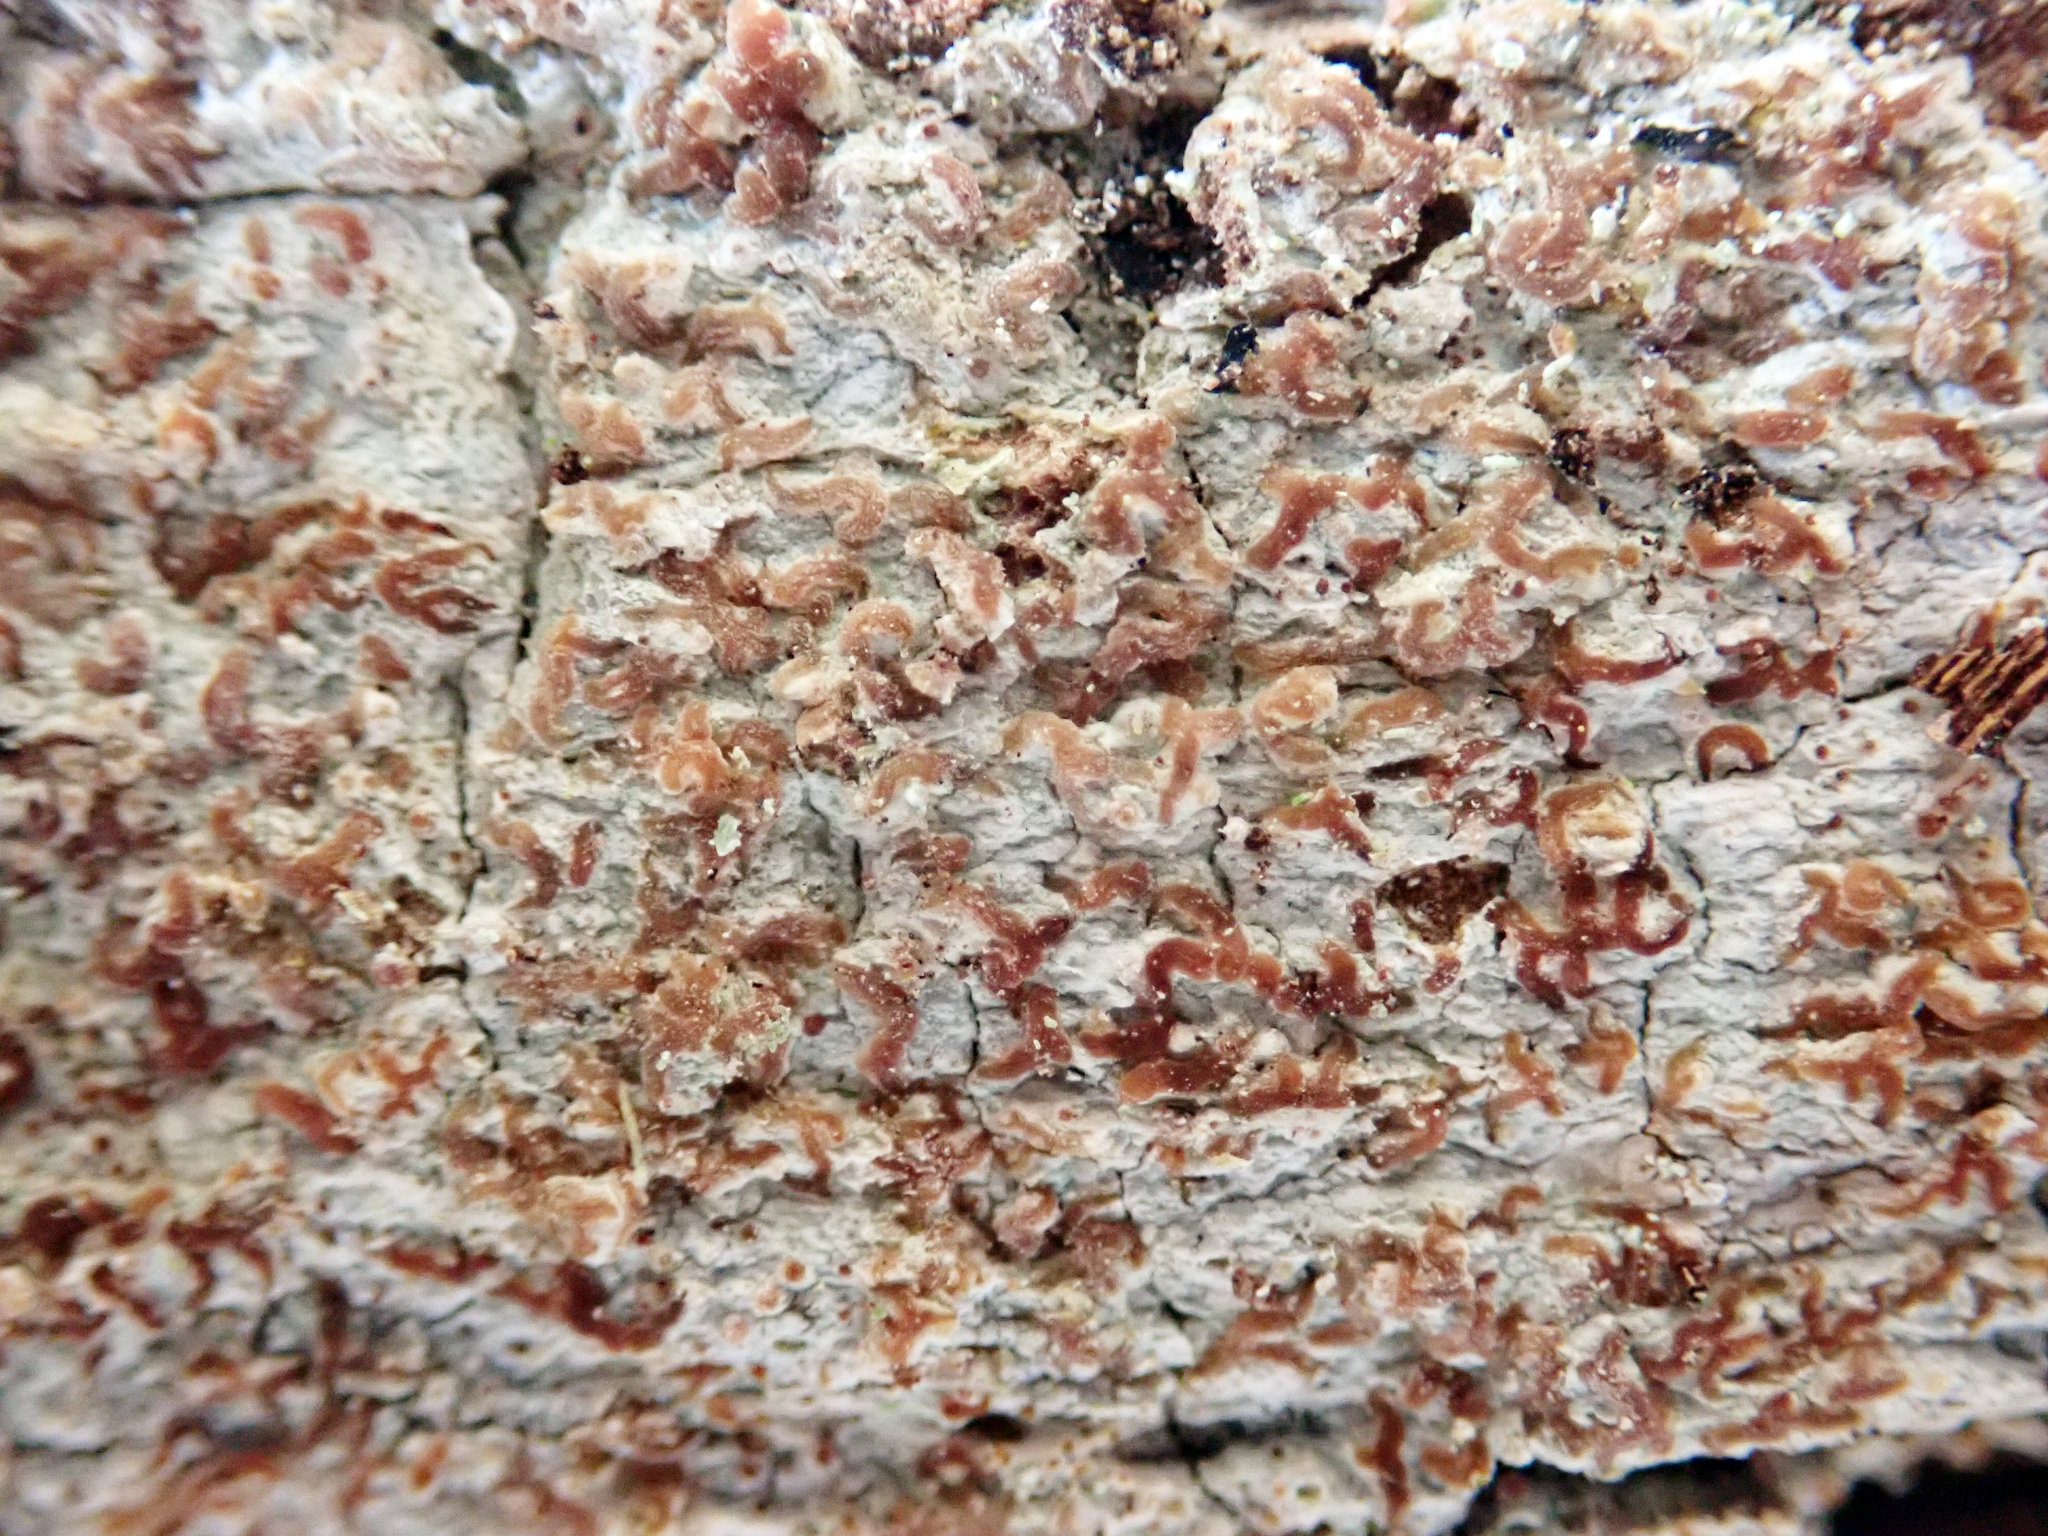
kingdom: Fungi
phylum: Ascomycota
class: Arthoniomycetes
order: Arthoniales
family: Roccellaceae
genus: Enterographa
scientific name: Enterographa pallidella
